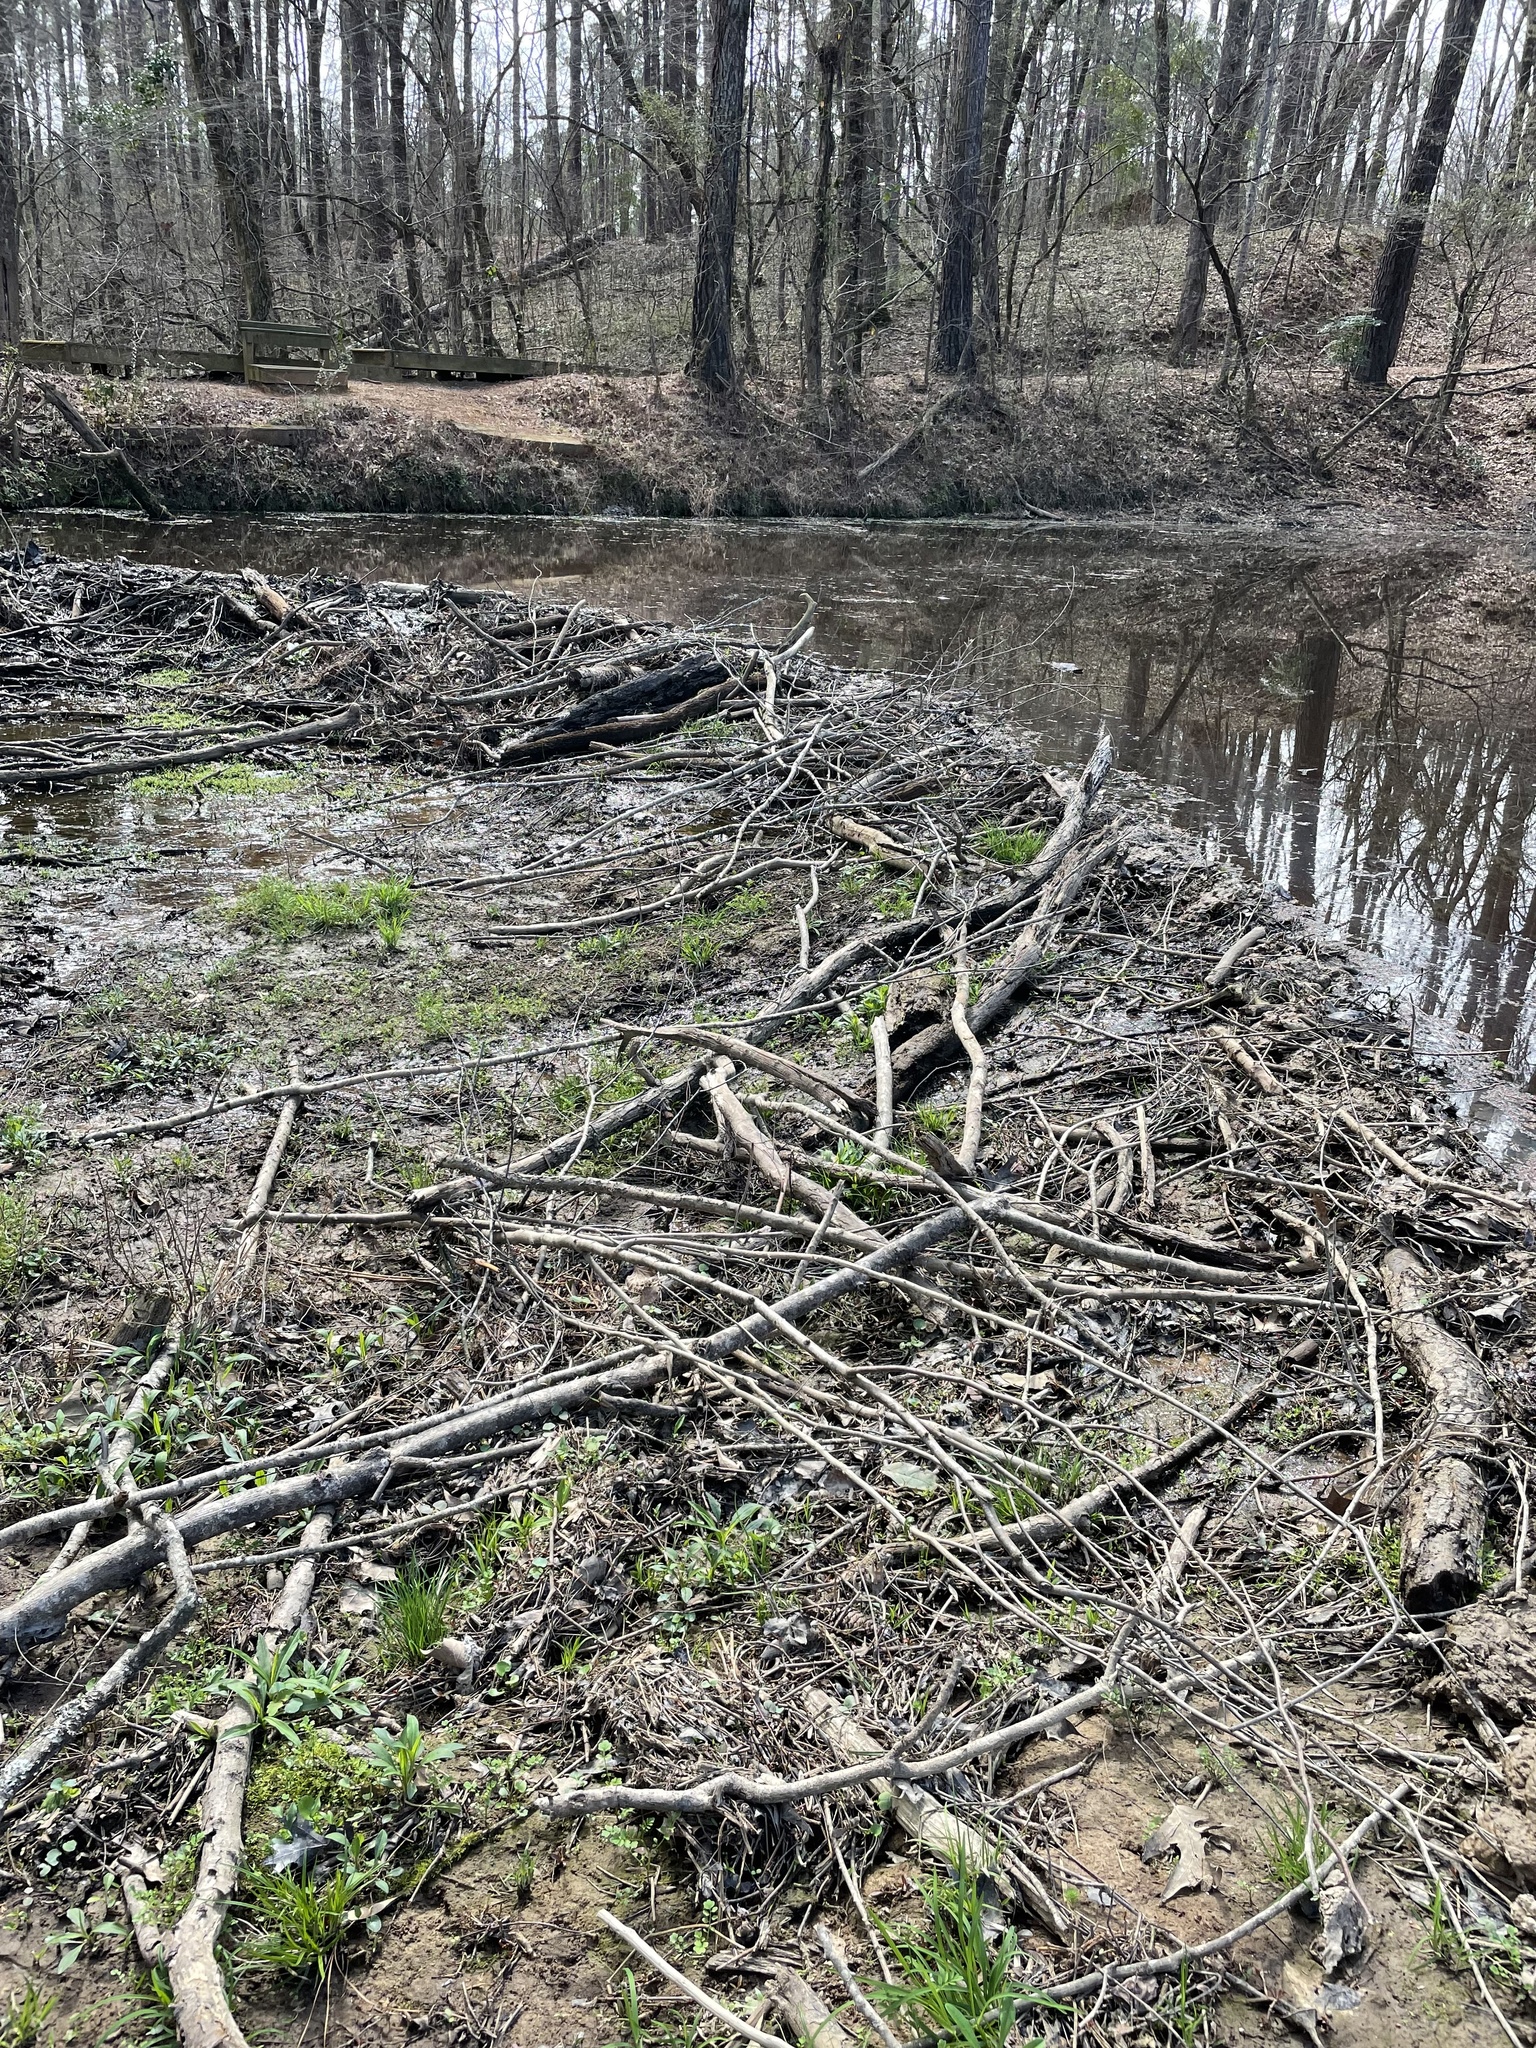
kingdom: Animalia
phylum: Chordata
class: Mammalia
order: Rodentia
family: Castoridae
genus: Castor
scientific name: Castor canadensis
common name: American beaver
